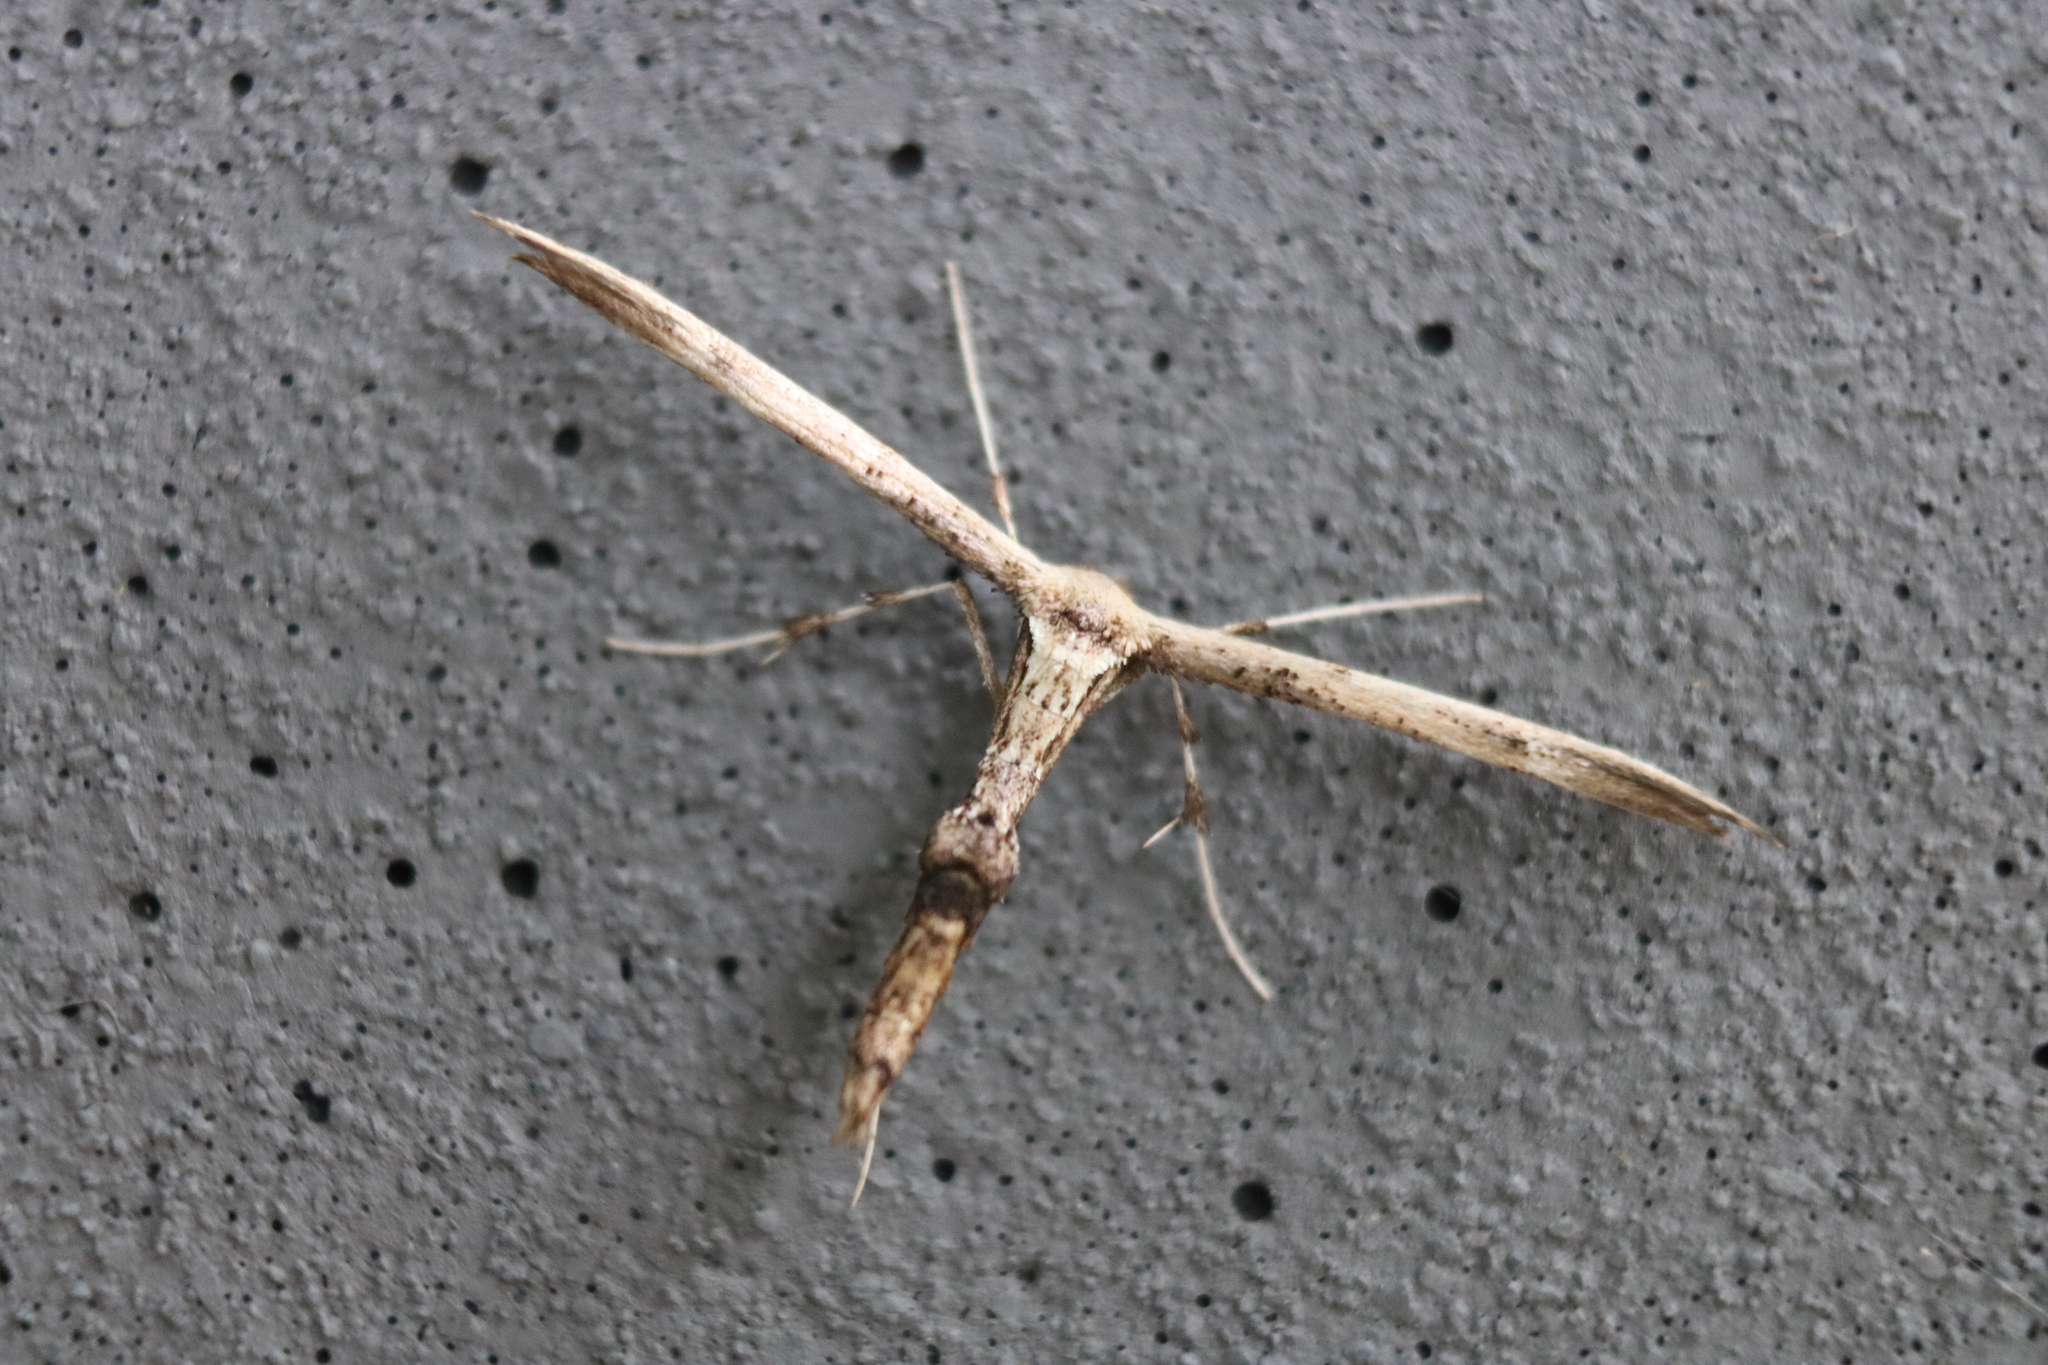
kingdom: Animalia
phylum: Arthropoda
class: Insecta
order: Lepidoptera
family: Pterophoridae
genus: Oidaematophorus
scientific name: Oidaematophorus eupatorii
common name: Eupatorium plume moth
